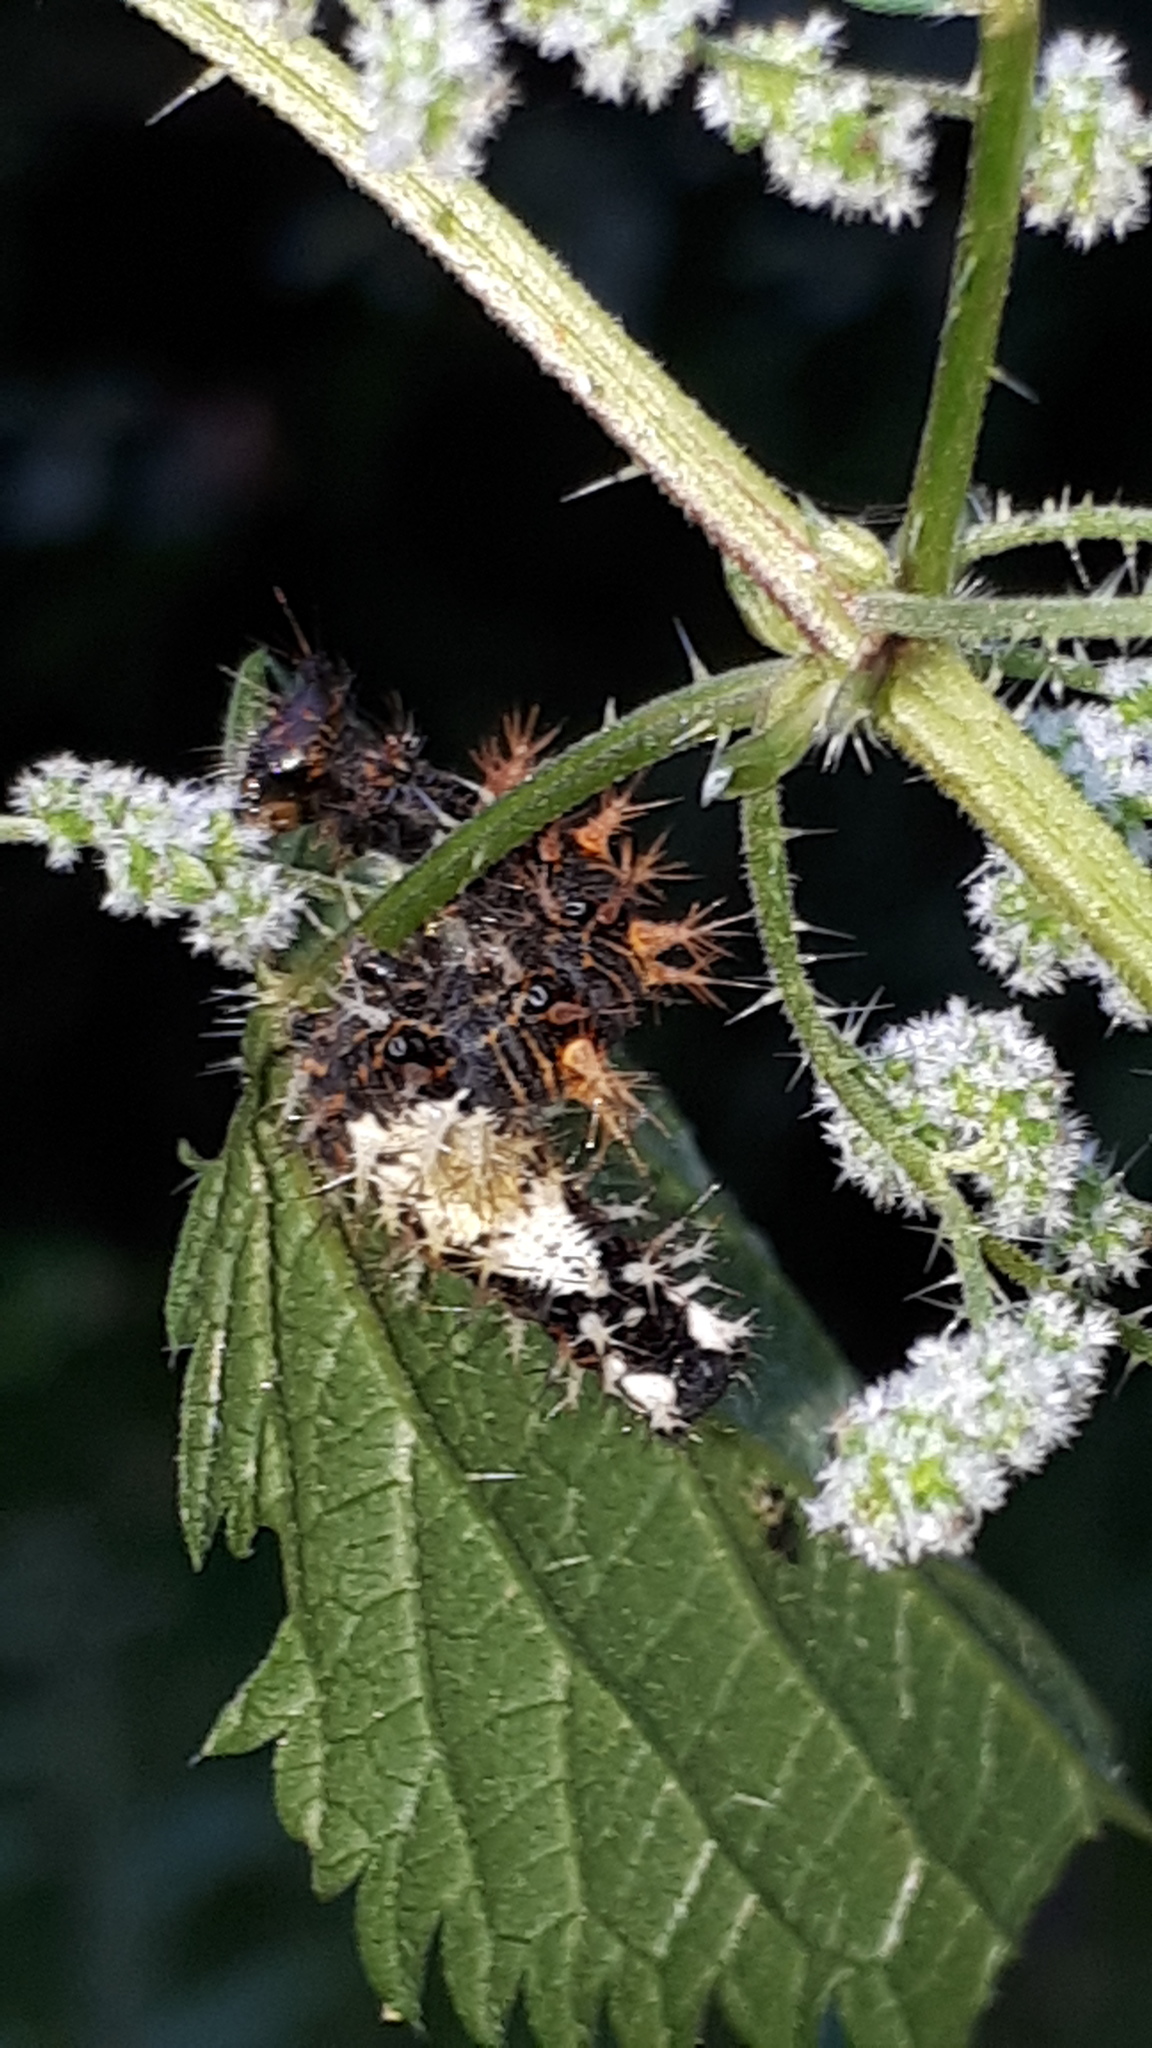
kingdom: Animalia
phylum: Arthropoda
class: Insecta
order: Lepidoptera
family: Nymphalidae
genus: Polygonia
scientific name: Polygonia c-album
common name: Comma
